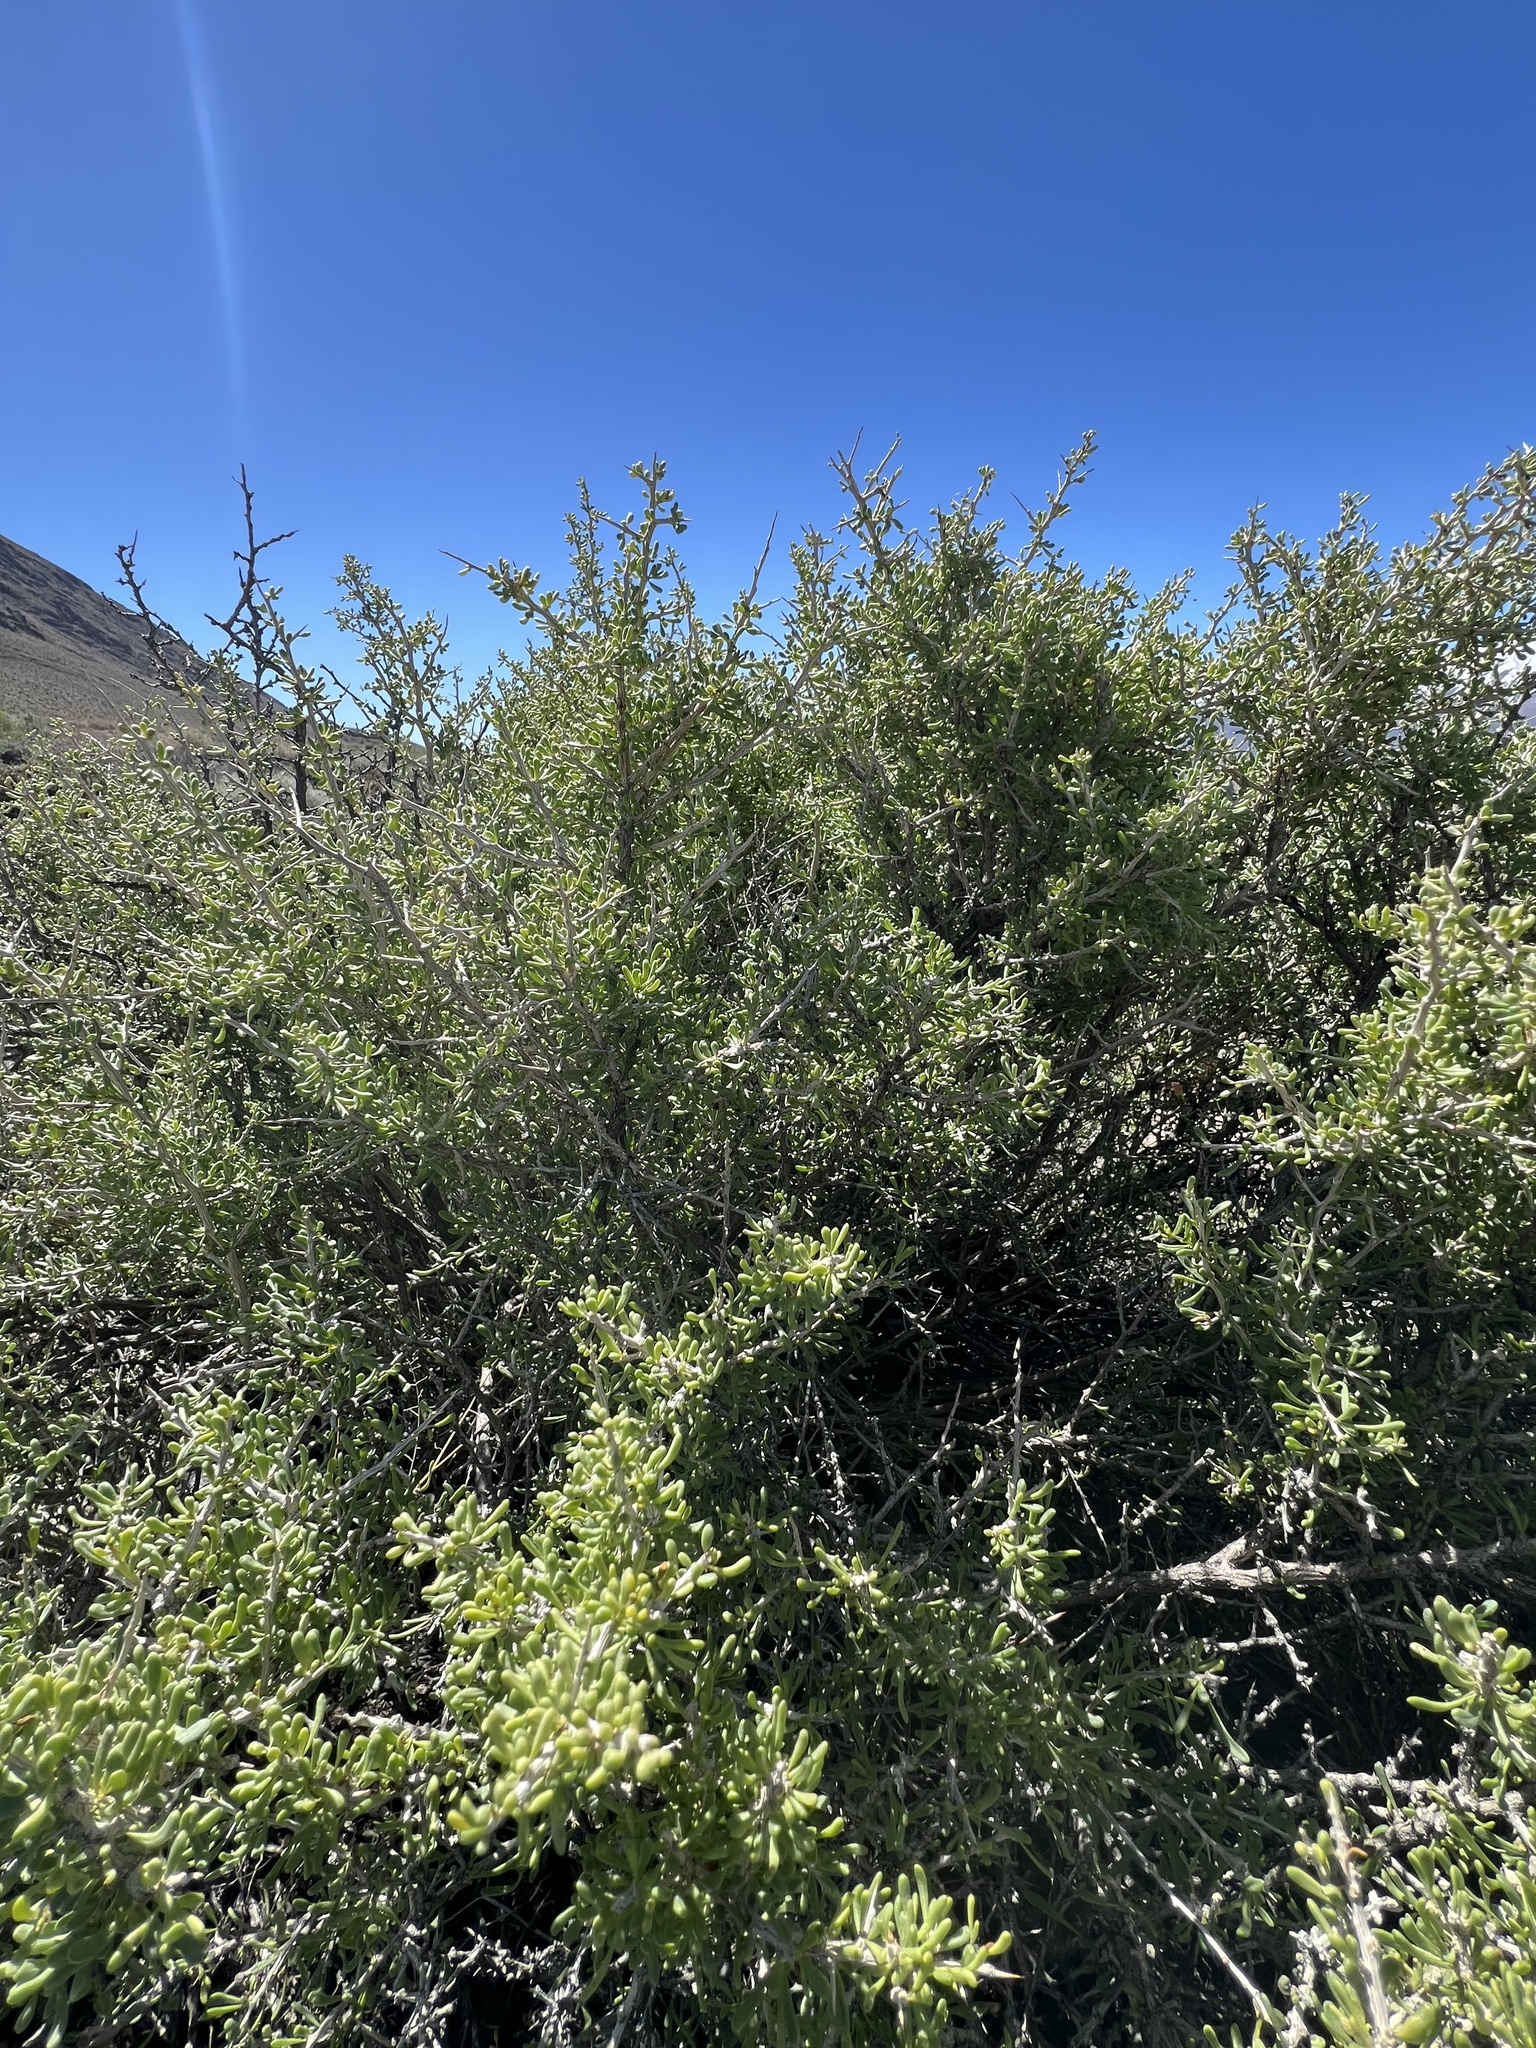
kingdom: Plantae
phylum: Tracheophyta
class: Magnoliopsida
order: Solanales
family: Solanaceae
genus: Lycium
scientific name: Lycium andersonii
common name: Water-jacket
